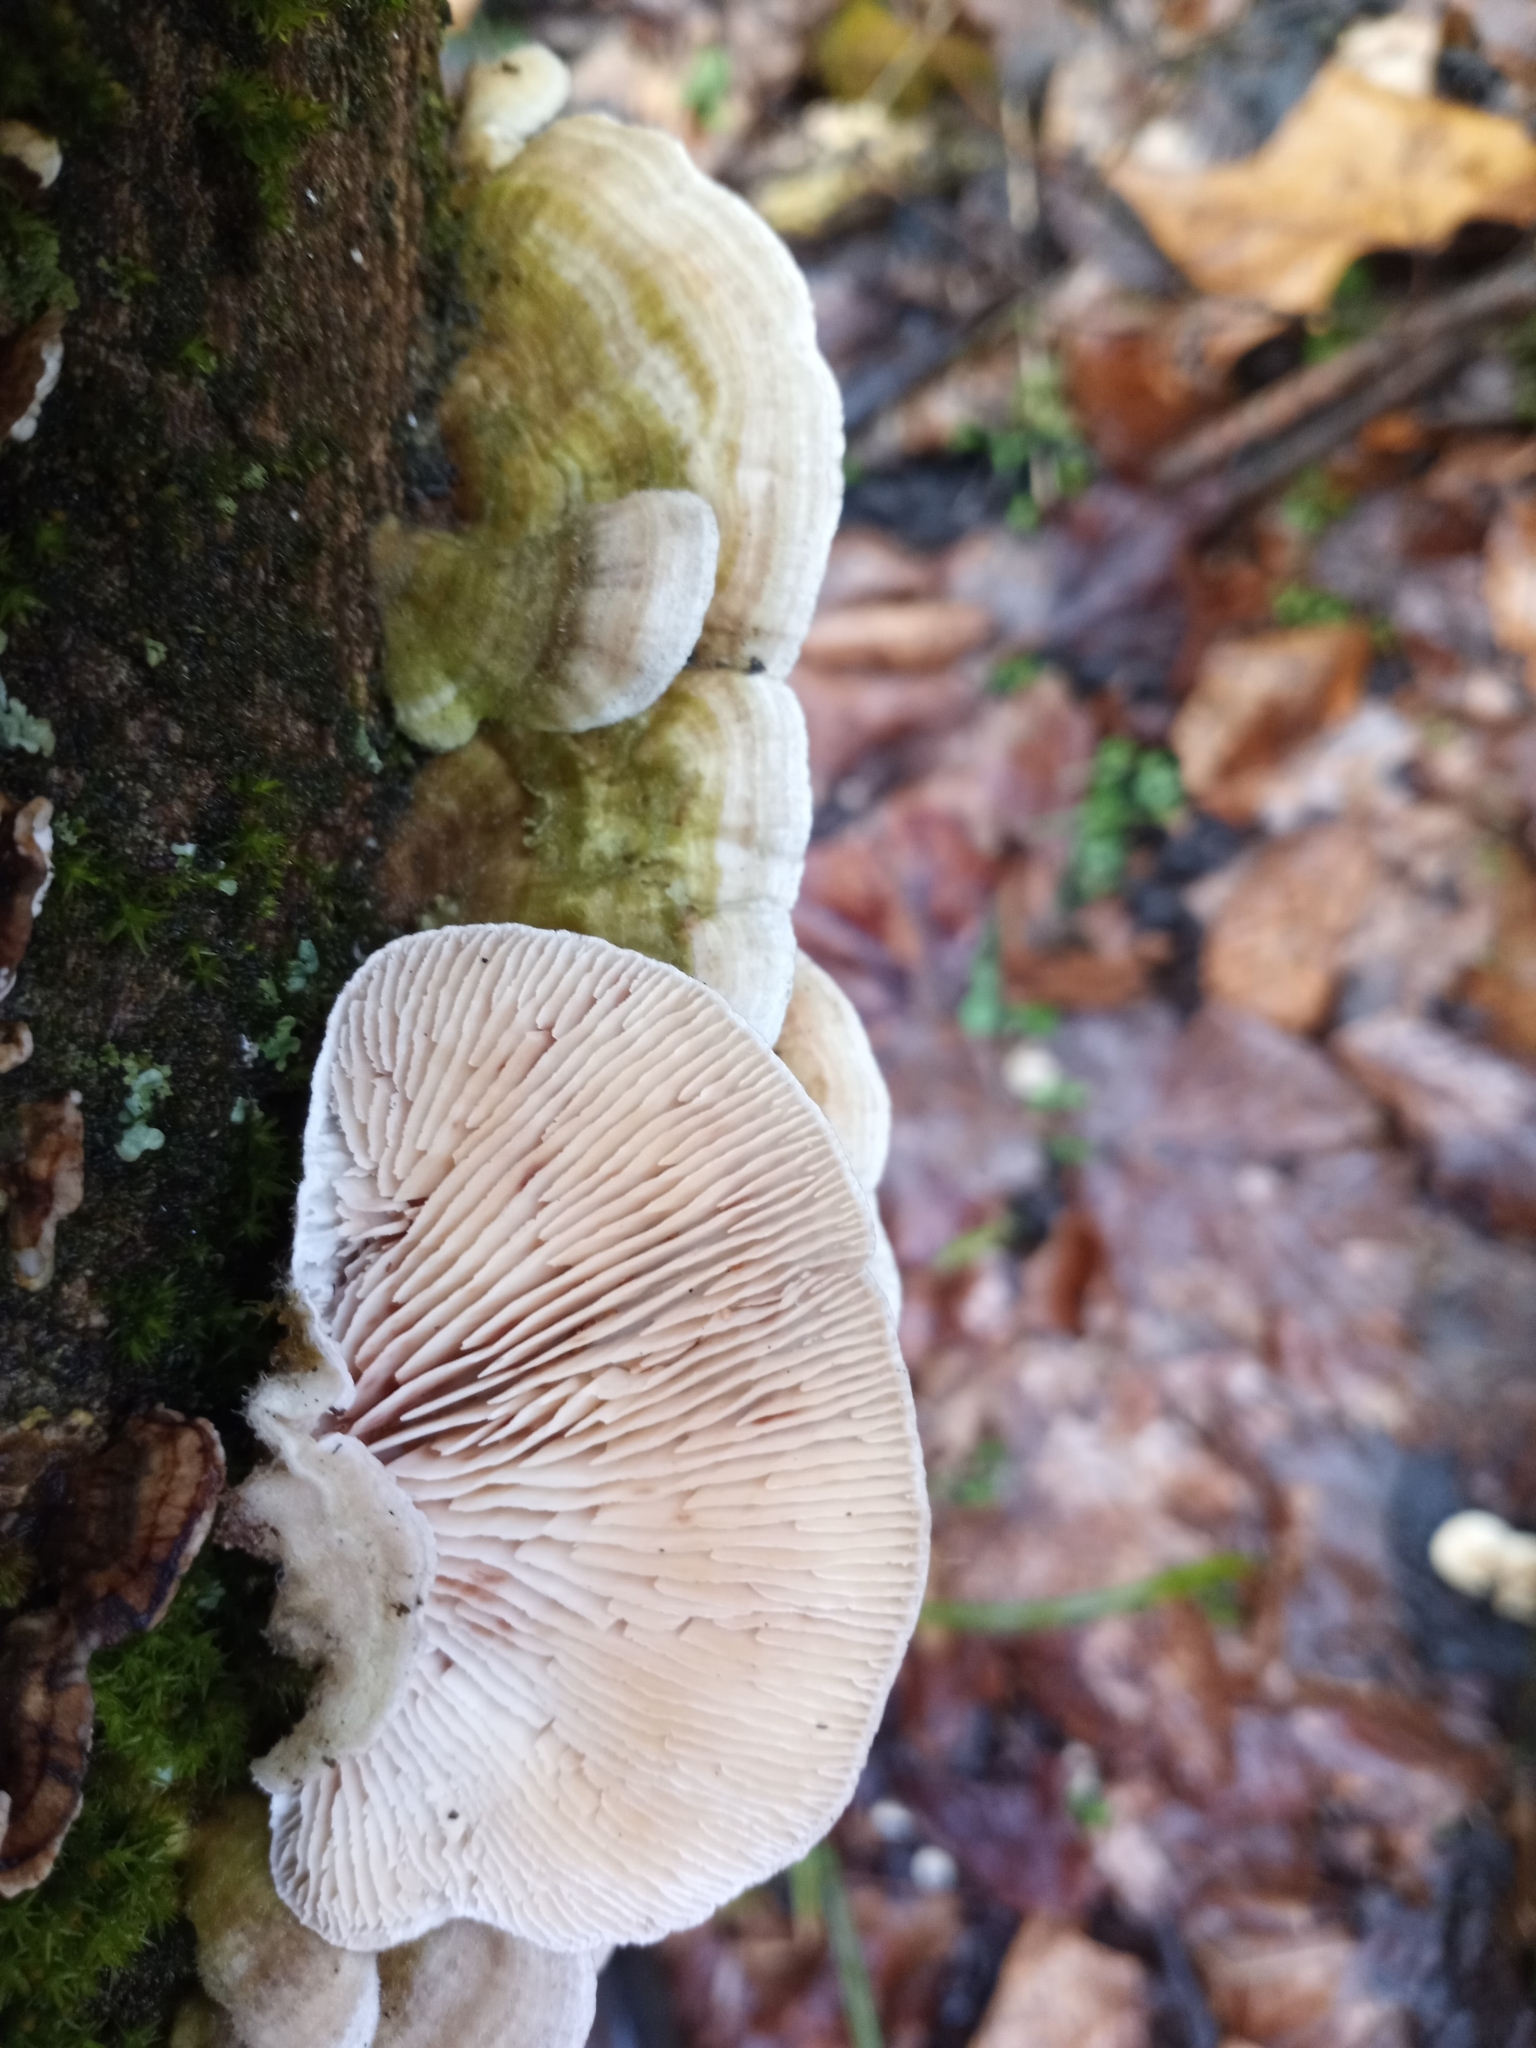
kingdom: Fungi
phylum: Basidiomycota
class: Agaricomycetes
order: Polyporales
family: Polyporaceae
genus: Lenzites
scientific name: Lenzites betulinus
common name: Birch mazegill
